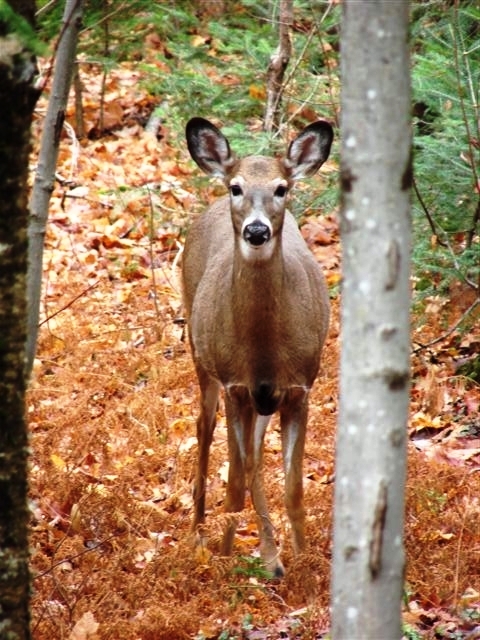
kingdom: Animalia
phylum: Chordata
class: Mammalia
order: Artiodactyla
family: Cervidae
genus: Odocoileus
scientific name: Odocoileus virginianus
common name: White-tailed deer
